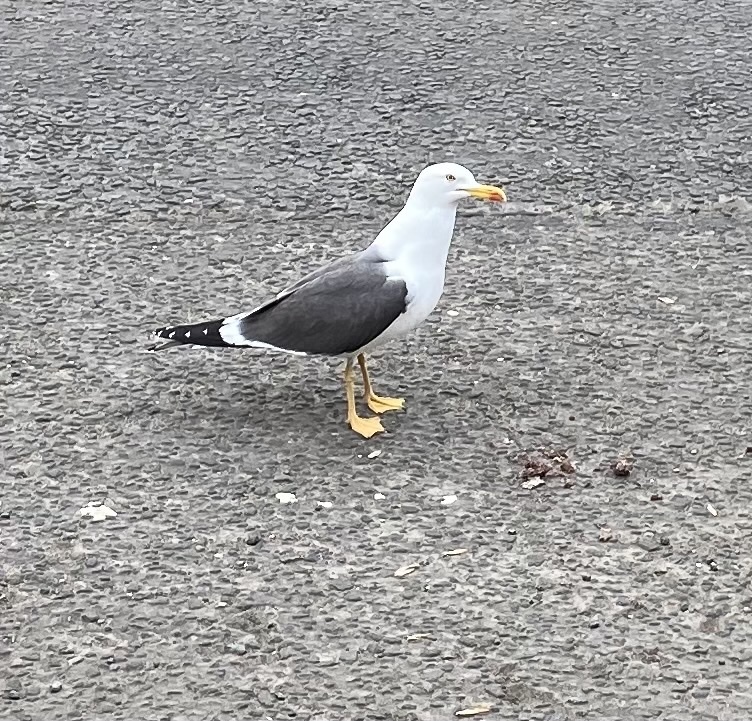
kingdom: Animalia
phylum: Chordata
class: Aves
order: Charadriiformes
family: Laridae
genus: Larus
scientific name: Larus fuscus
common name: Lesser black-backed gull
